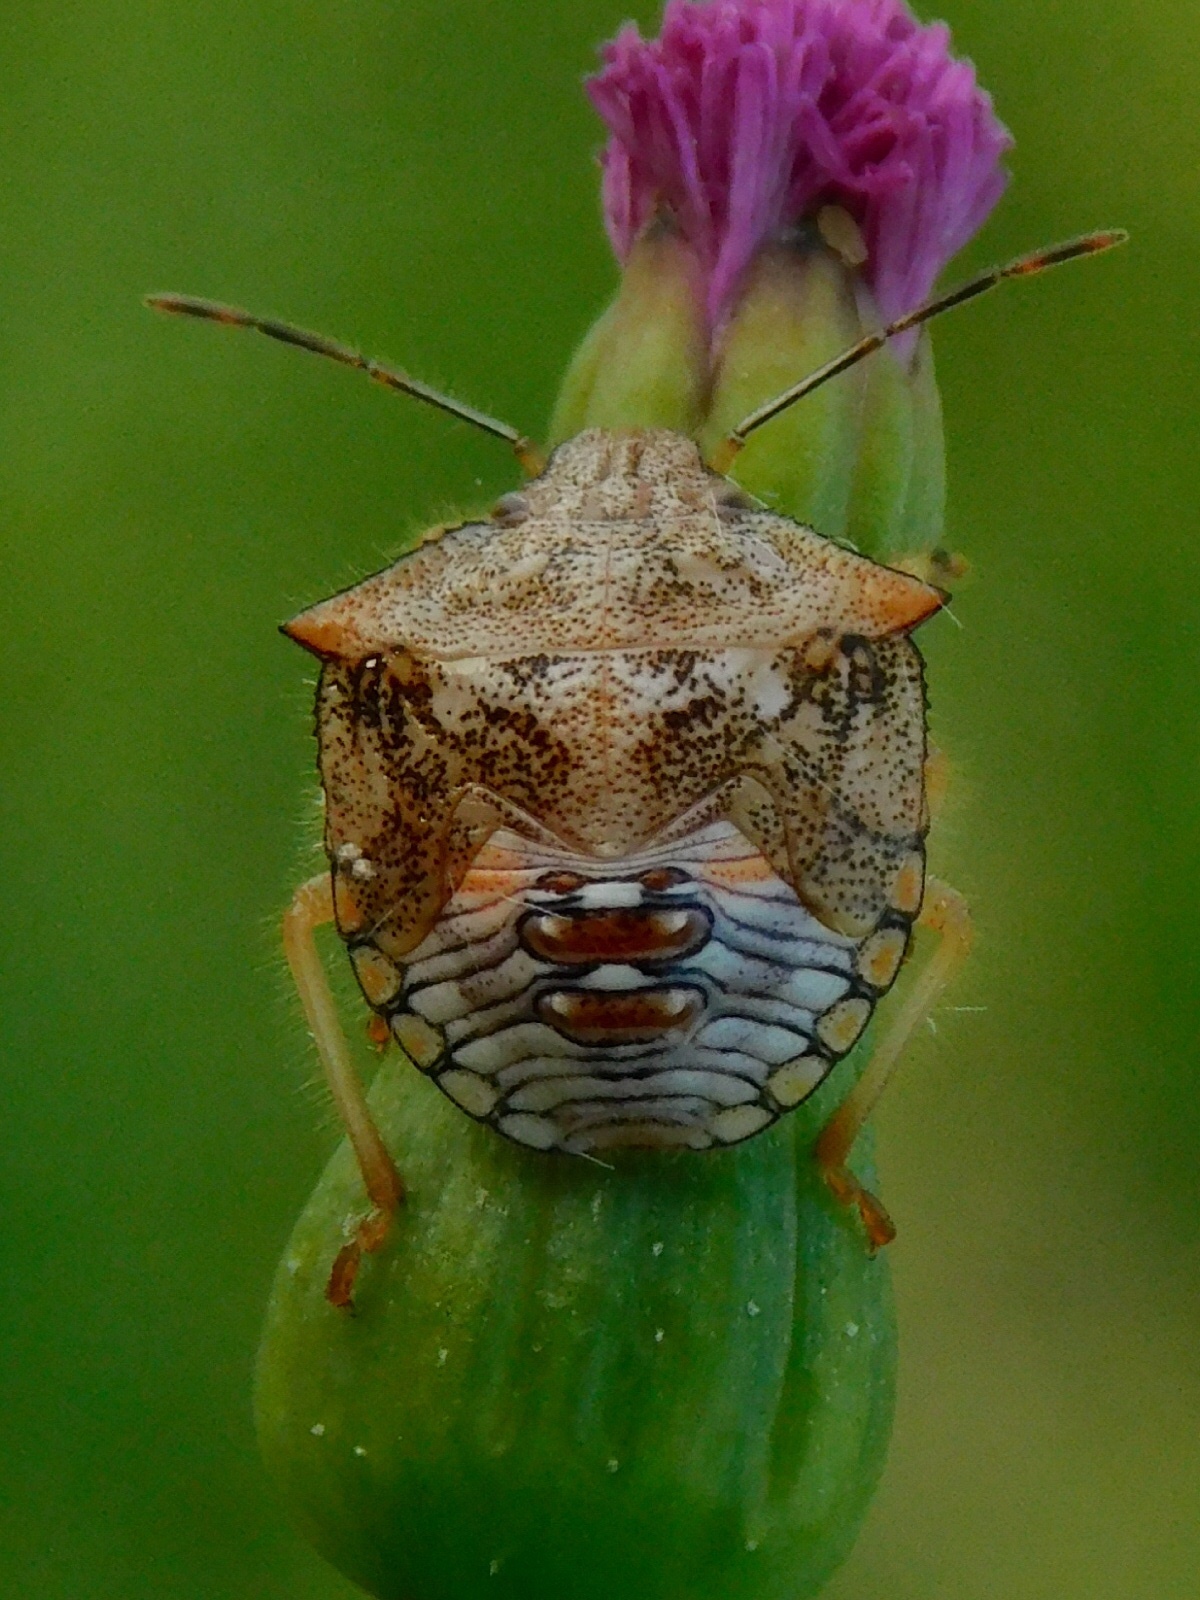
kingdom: Animalia
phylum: Arthropoda
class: Insecta
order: Hemiptera
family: Pentatomidae
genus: Thyanta
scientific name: Thyanta perditor
